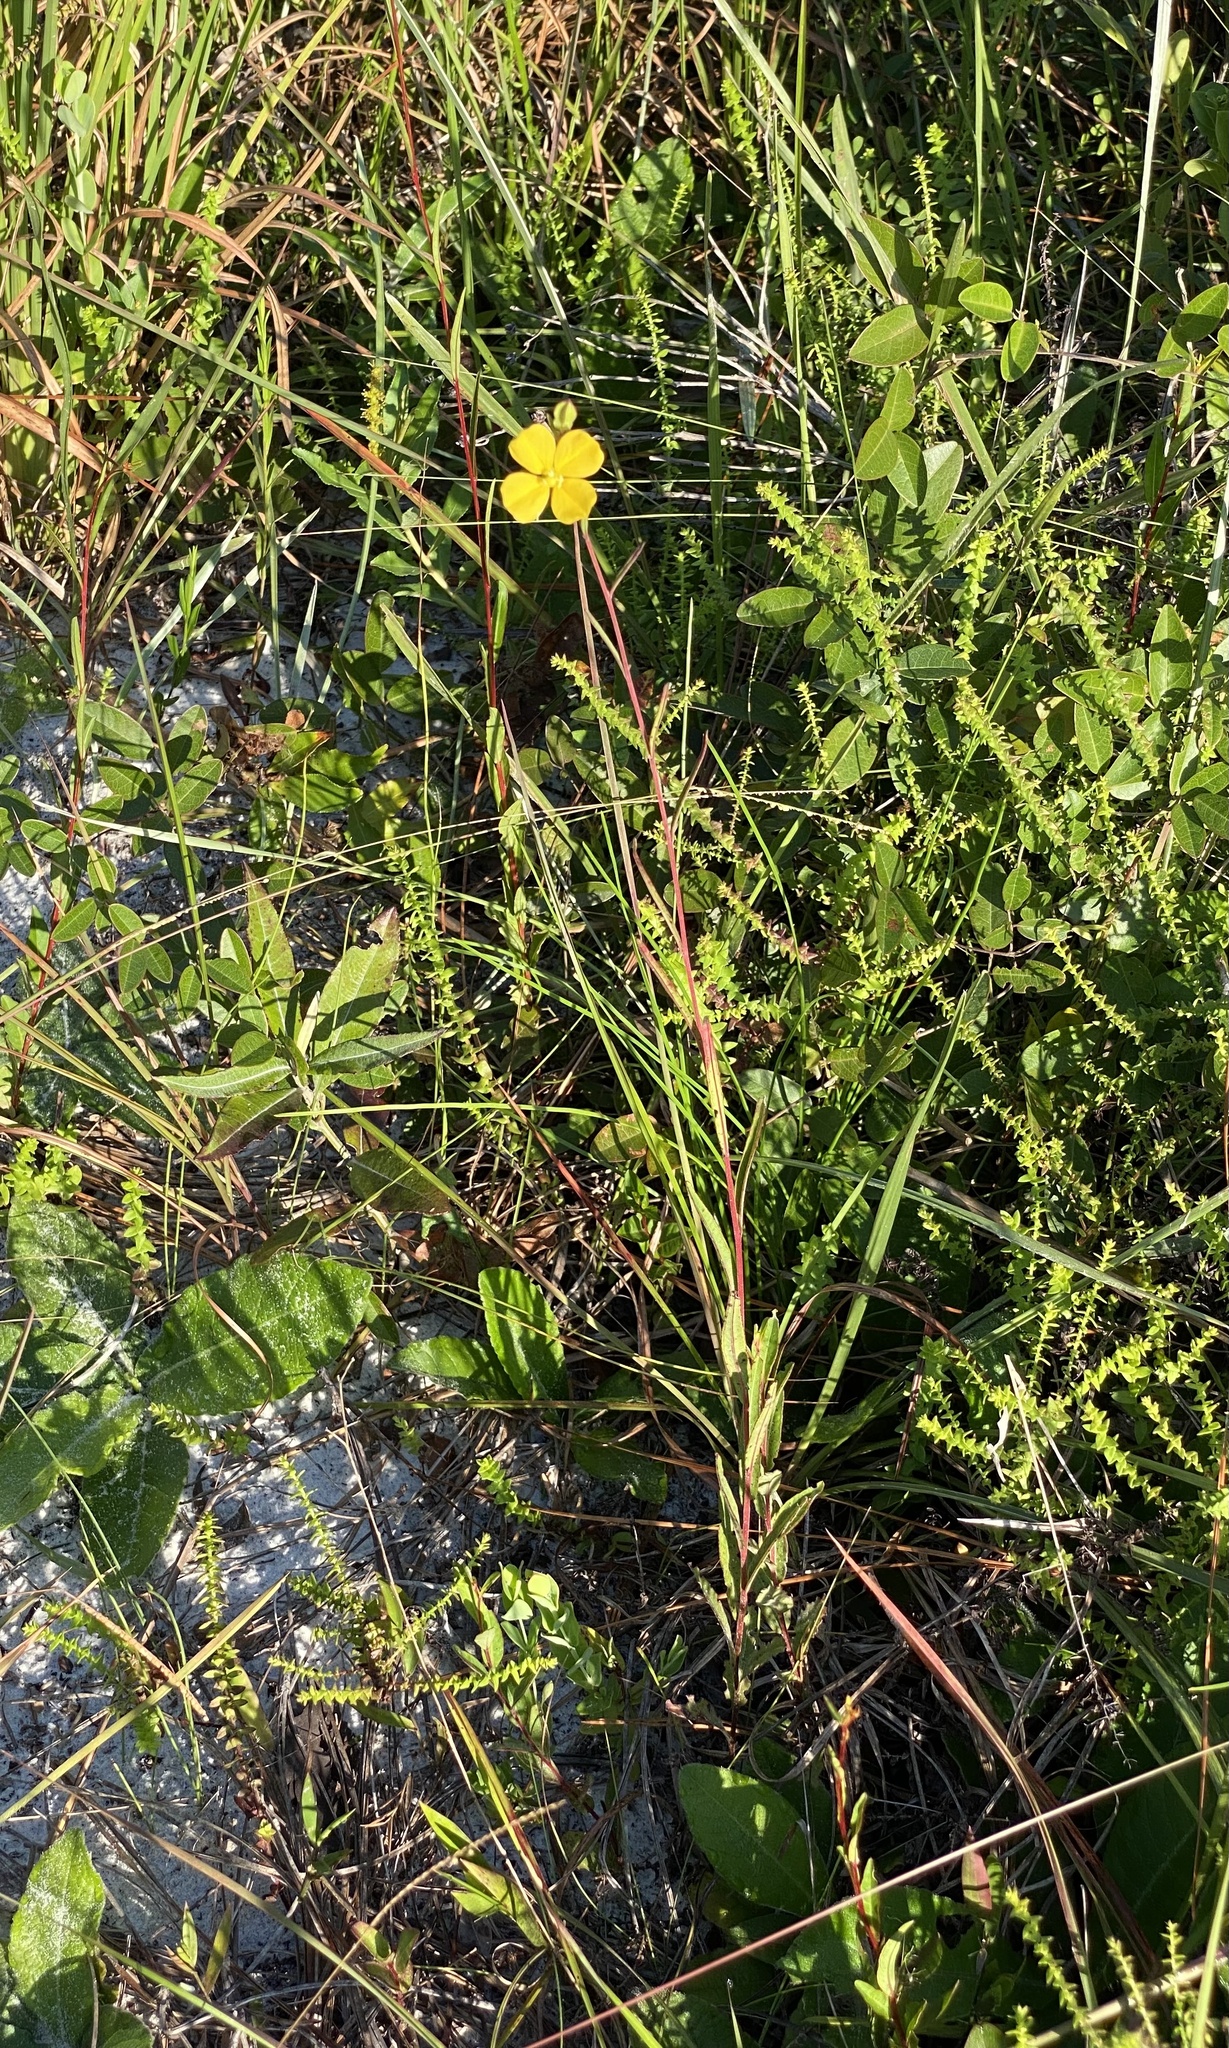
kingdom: Plantae
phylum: Tracheophyta
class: Magnoliopsida
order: Myrtales
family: Onagraceae
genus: Ludwigia
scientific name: Ludwigia maritima
